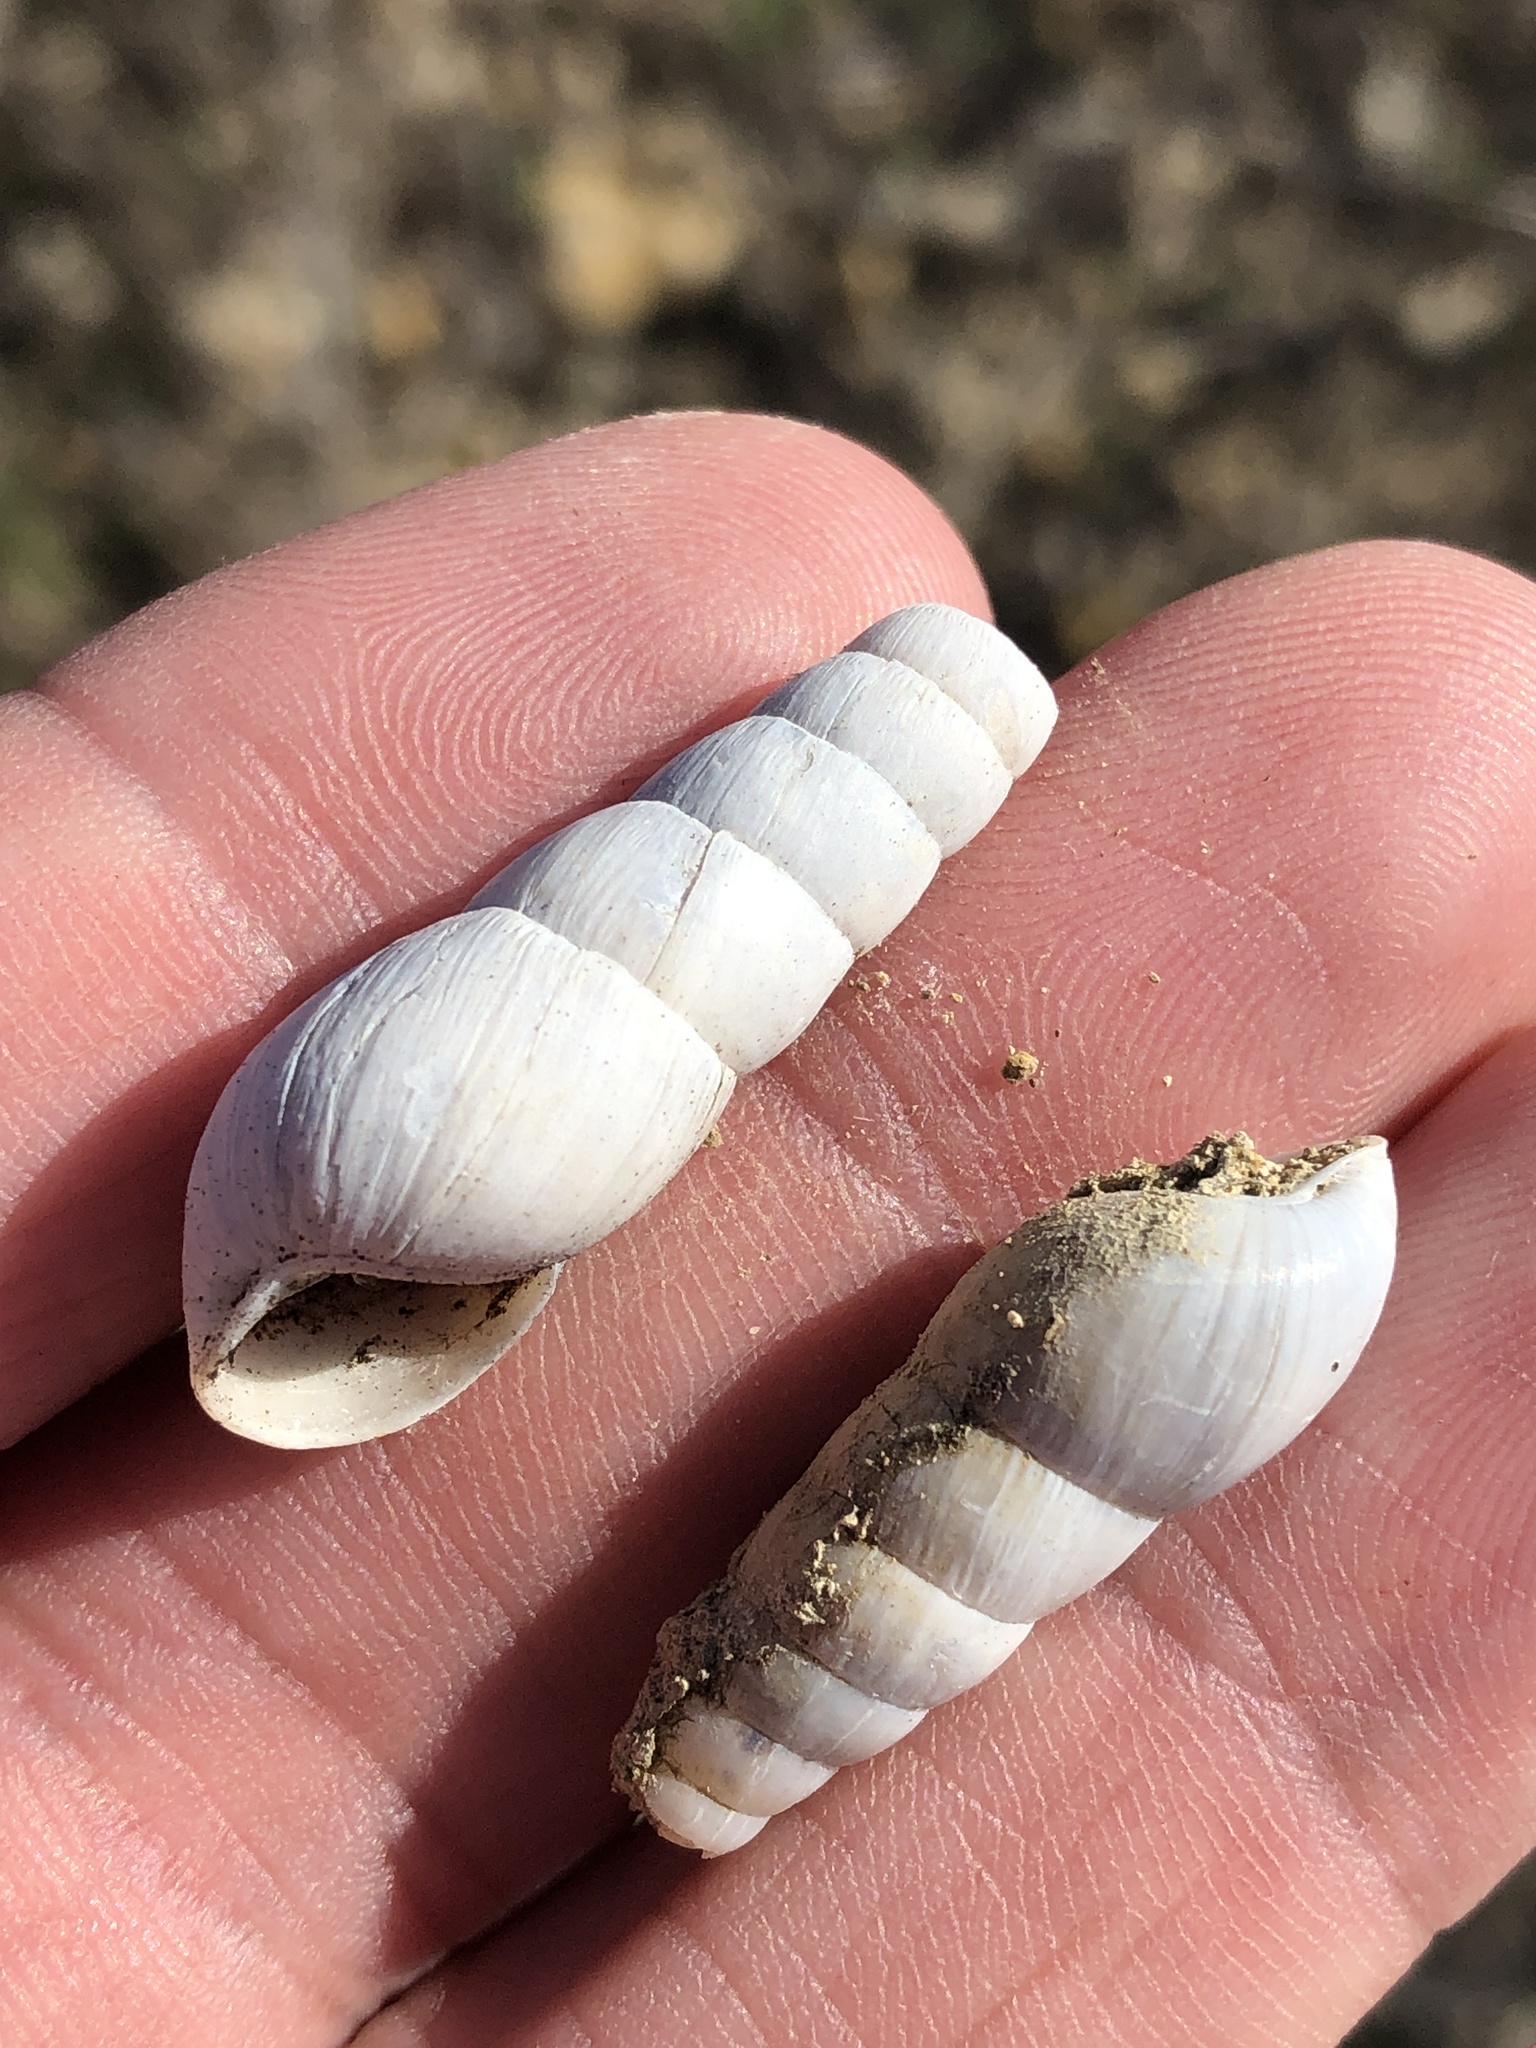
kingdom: Animalia
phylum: Mollusca
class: Gastropoda
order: Stylommatophora
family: Achatinidae
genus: Rumina
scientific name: Rumina decollata
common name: Decollate snail
